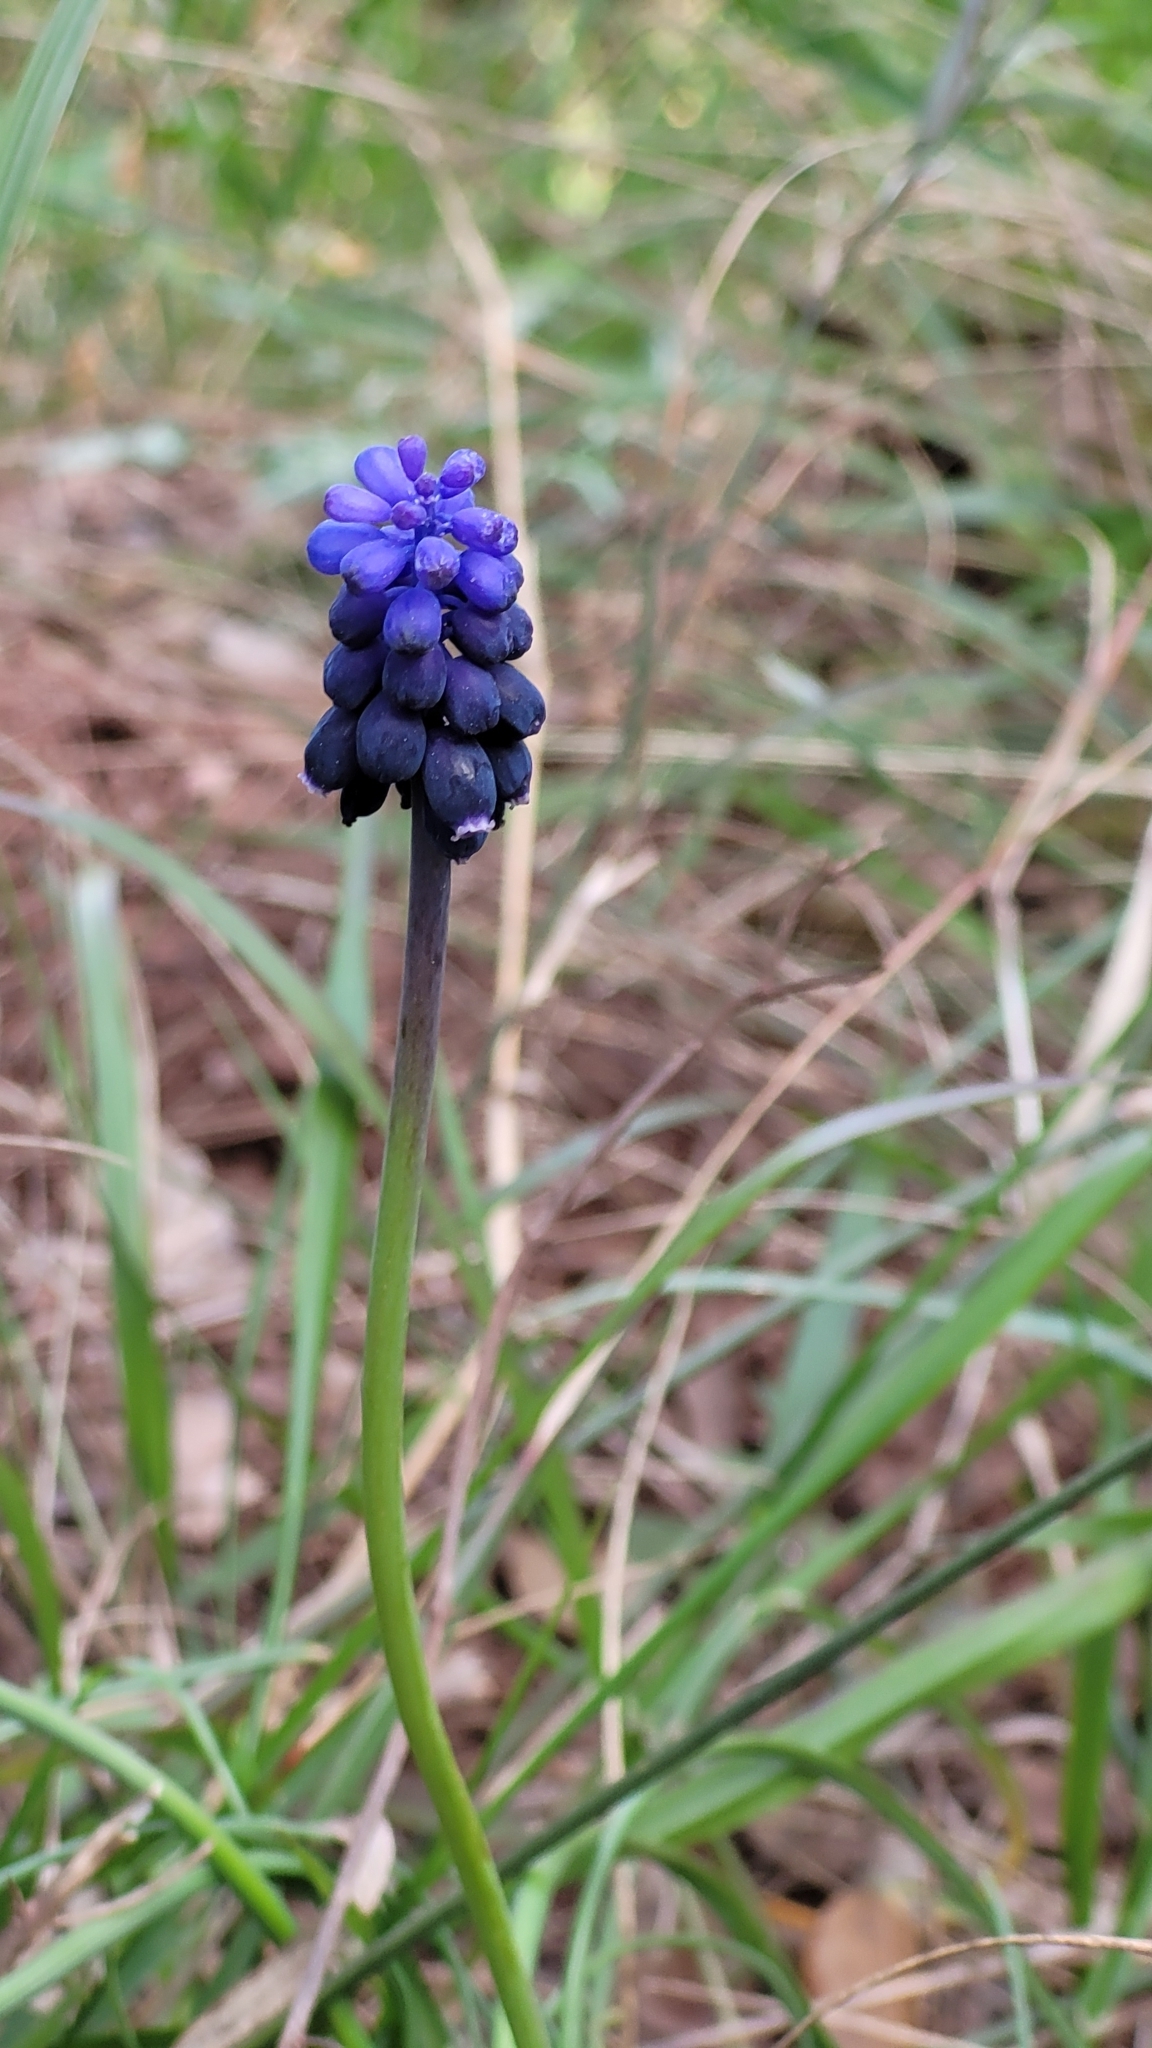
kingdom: Plantae
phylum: Tracheophyta
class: Liliopsida
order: Asparagales
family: Asparagaceae
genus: Muscari
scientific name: Muscari neglectum
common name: Grape-hyacinth
